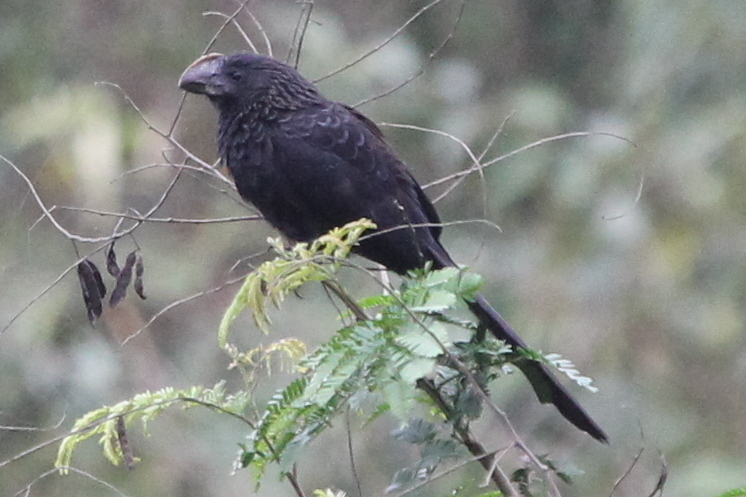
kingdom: Animalia
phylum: Chordata
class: Aves
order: Cuculiformes
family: Cuculidae
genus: Crotophaga
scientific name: Crotophaga ani
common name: Smooth-billed ani
